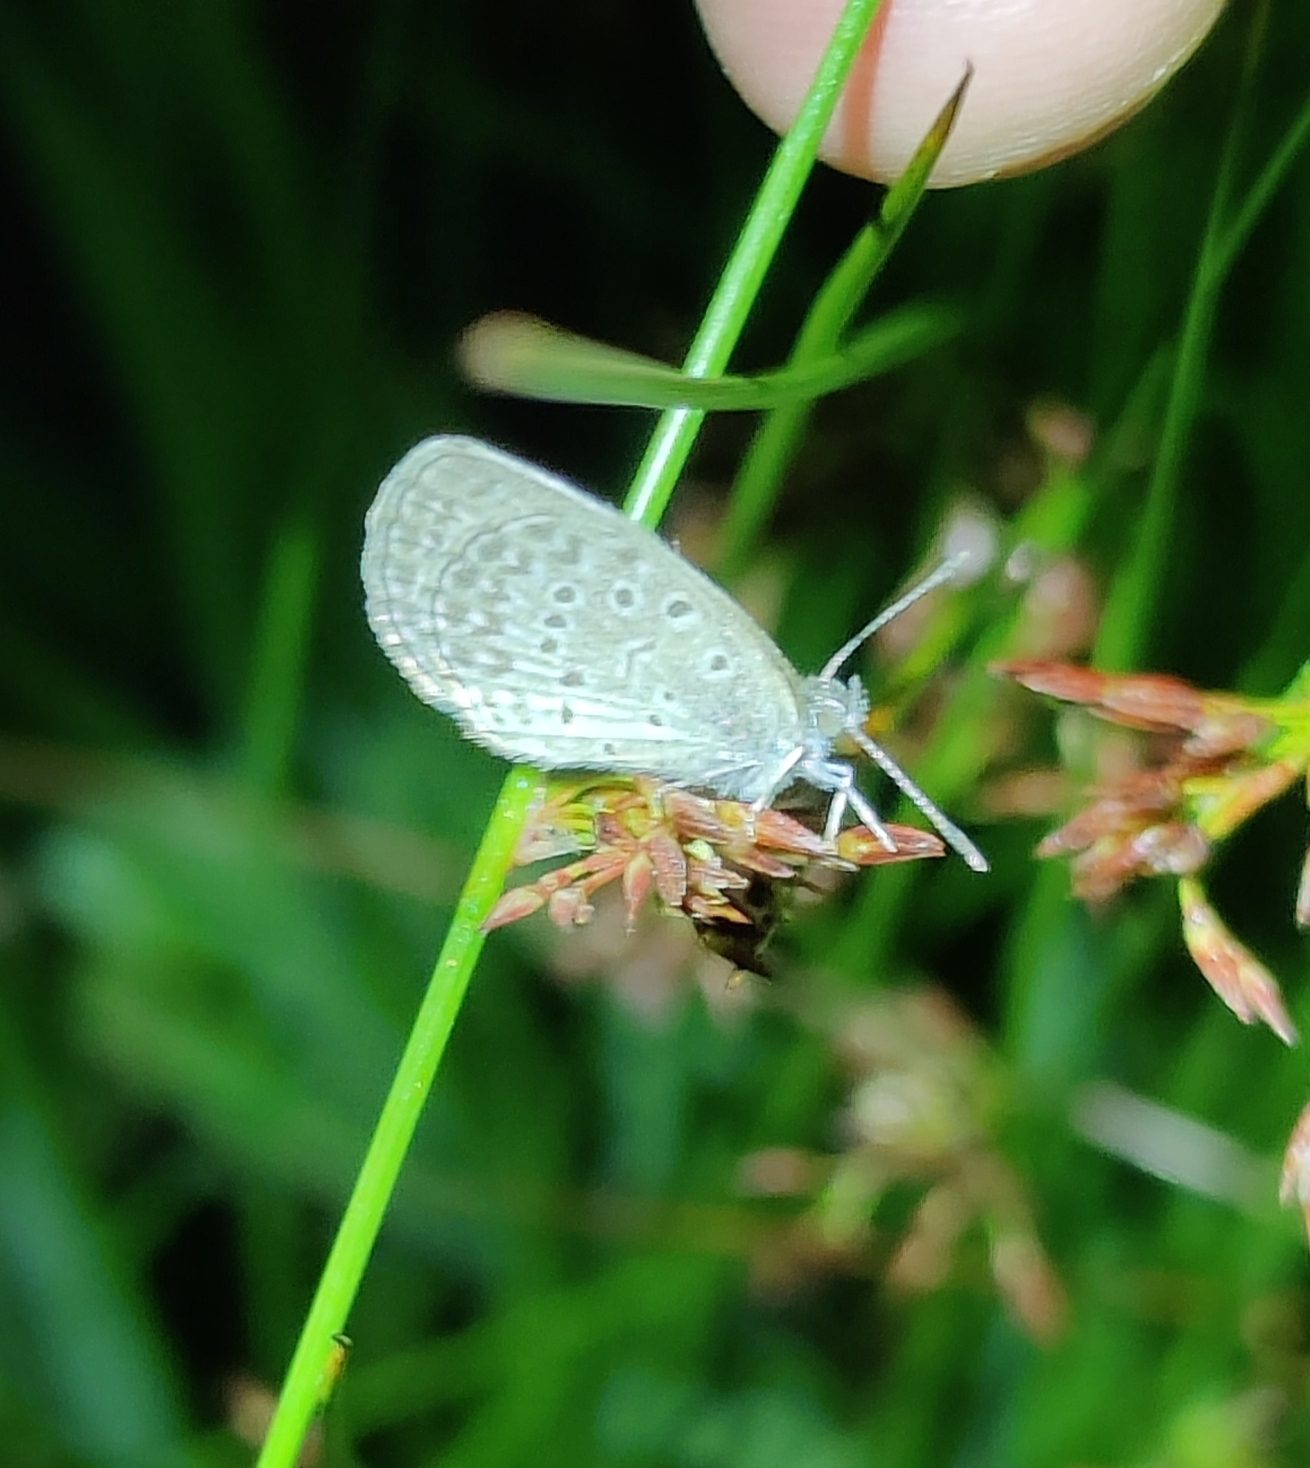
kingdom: Animalia
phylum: Arthropoda
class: Insecta
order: Lepidoptera
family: Lycaenidae
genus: Pseudozizeeria
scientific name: Pseudozizeeria maha
